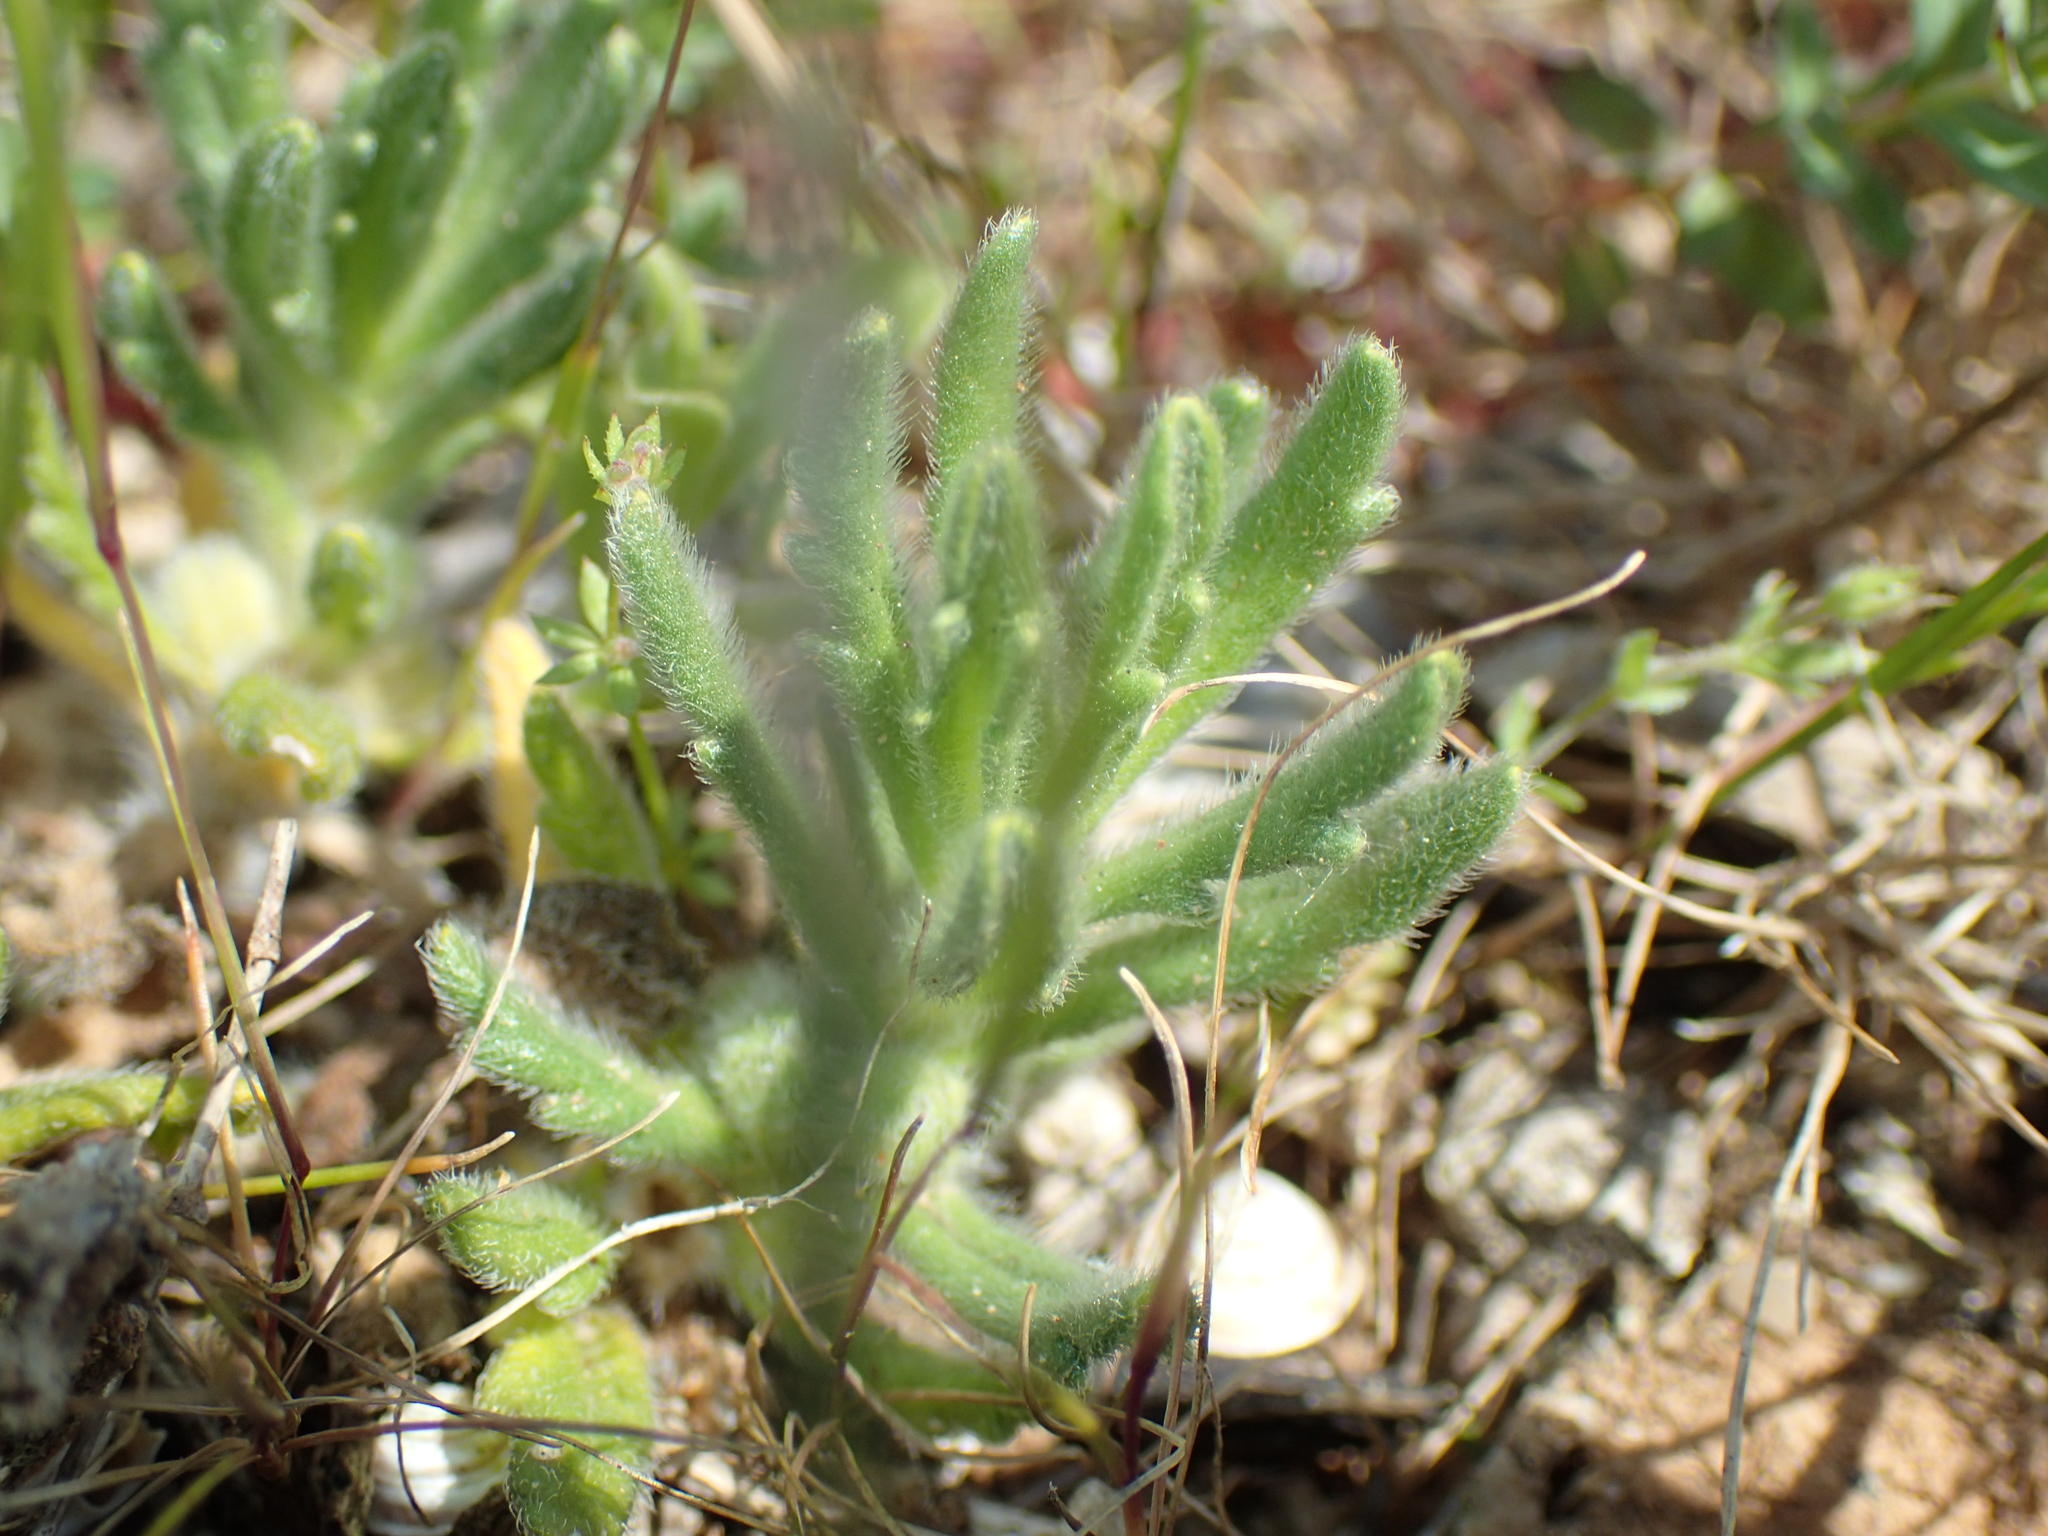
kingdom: Plantae
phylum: Tracheophyta
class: Magnoliopsida
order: Lamiales
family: Lamiaceae
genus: Ajuga
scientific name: Ajuga iva
